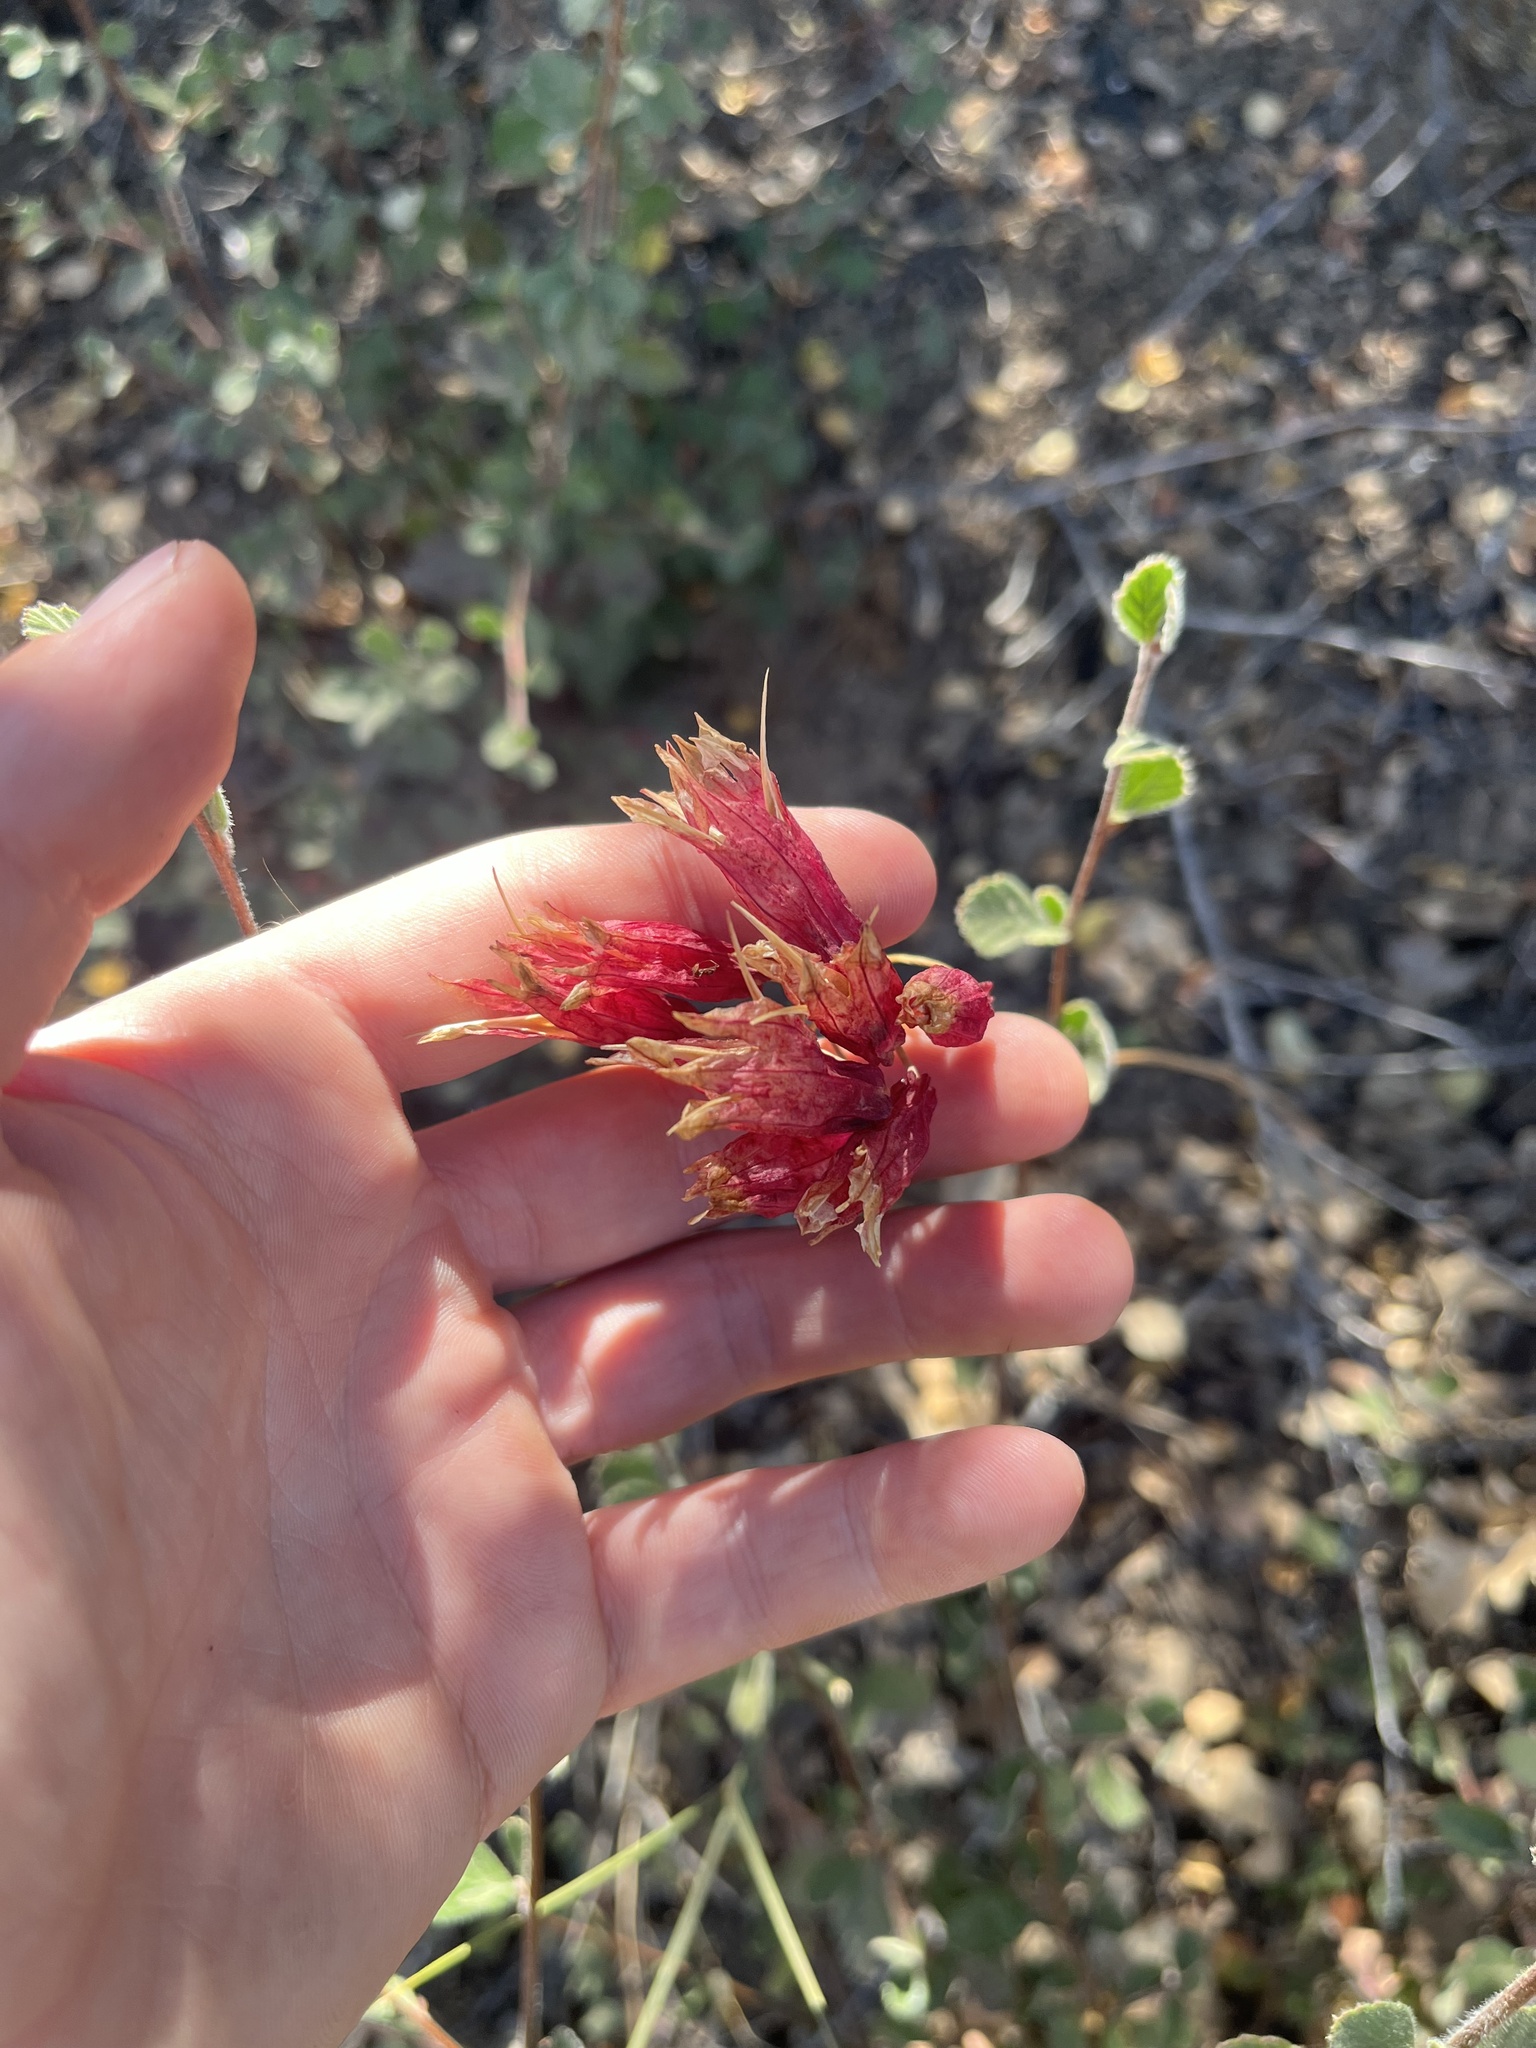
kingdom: Plantae
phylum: Tracheophyta
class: Liliopsida
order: Asparagales
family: Asparagaceae
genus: Dichelostemma
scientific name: Dichelostemma ida-maia
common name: Firecracker-flower
